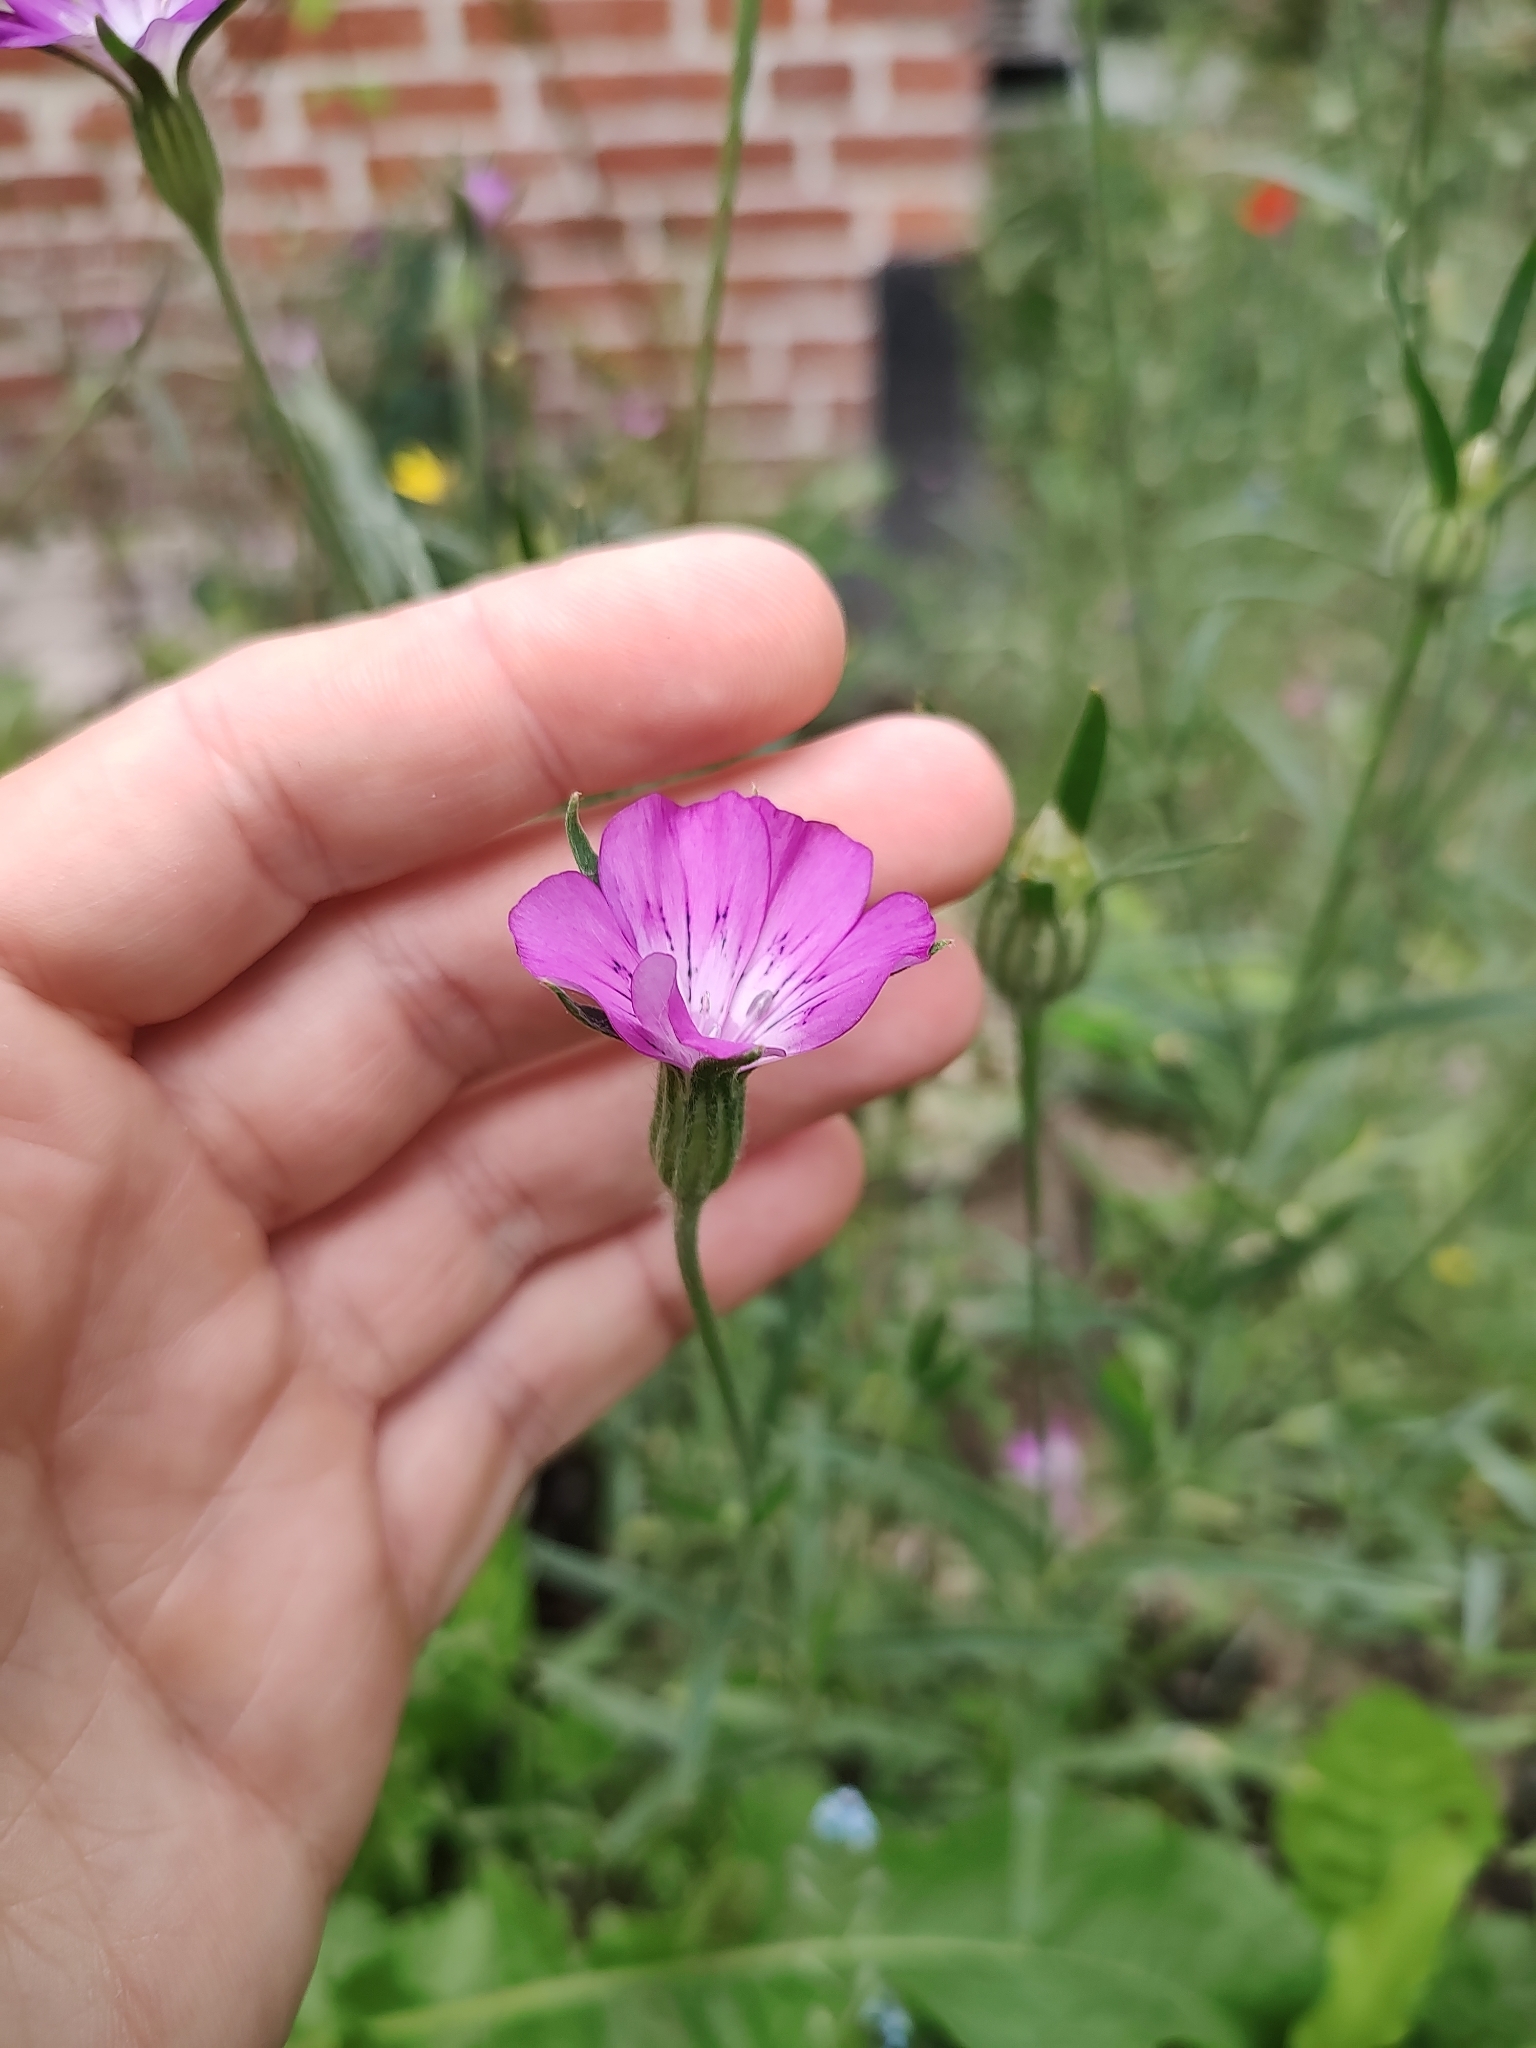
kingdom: Plantae
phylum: Tracheophyta
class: Magnoliopsida
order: Caryophyllales
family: Caryophyllaceae
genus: Agrostemma
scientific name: Agrostemma githago
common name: Common corncockle
